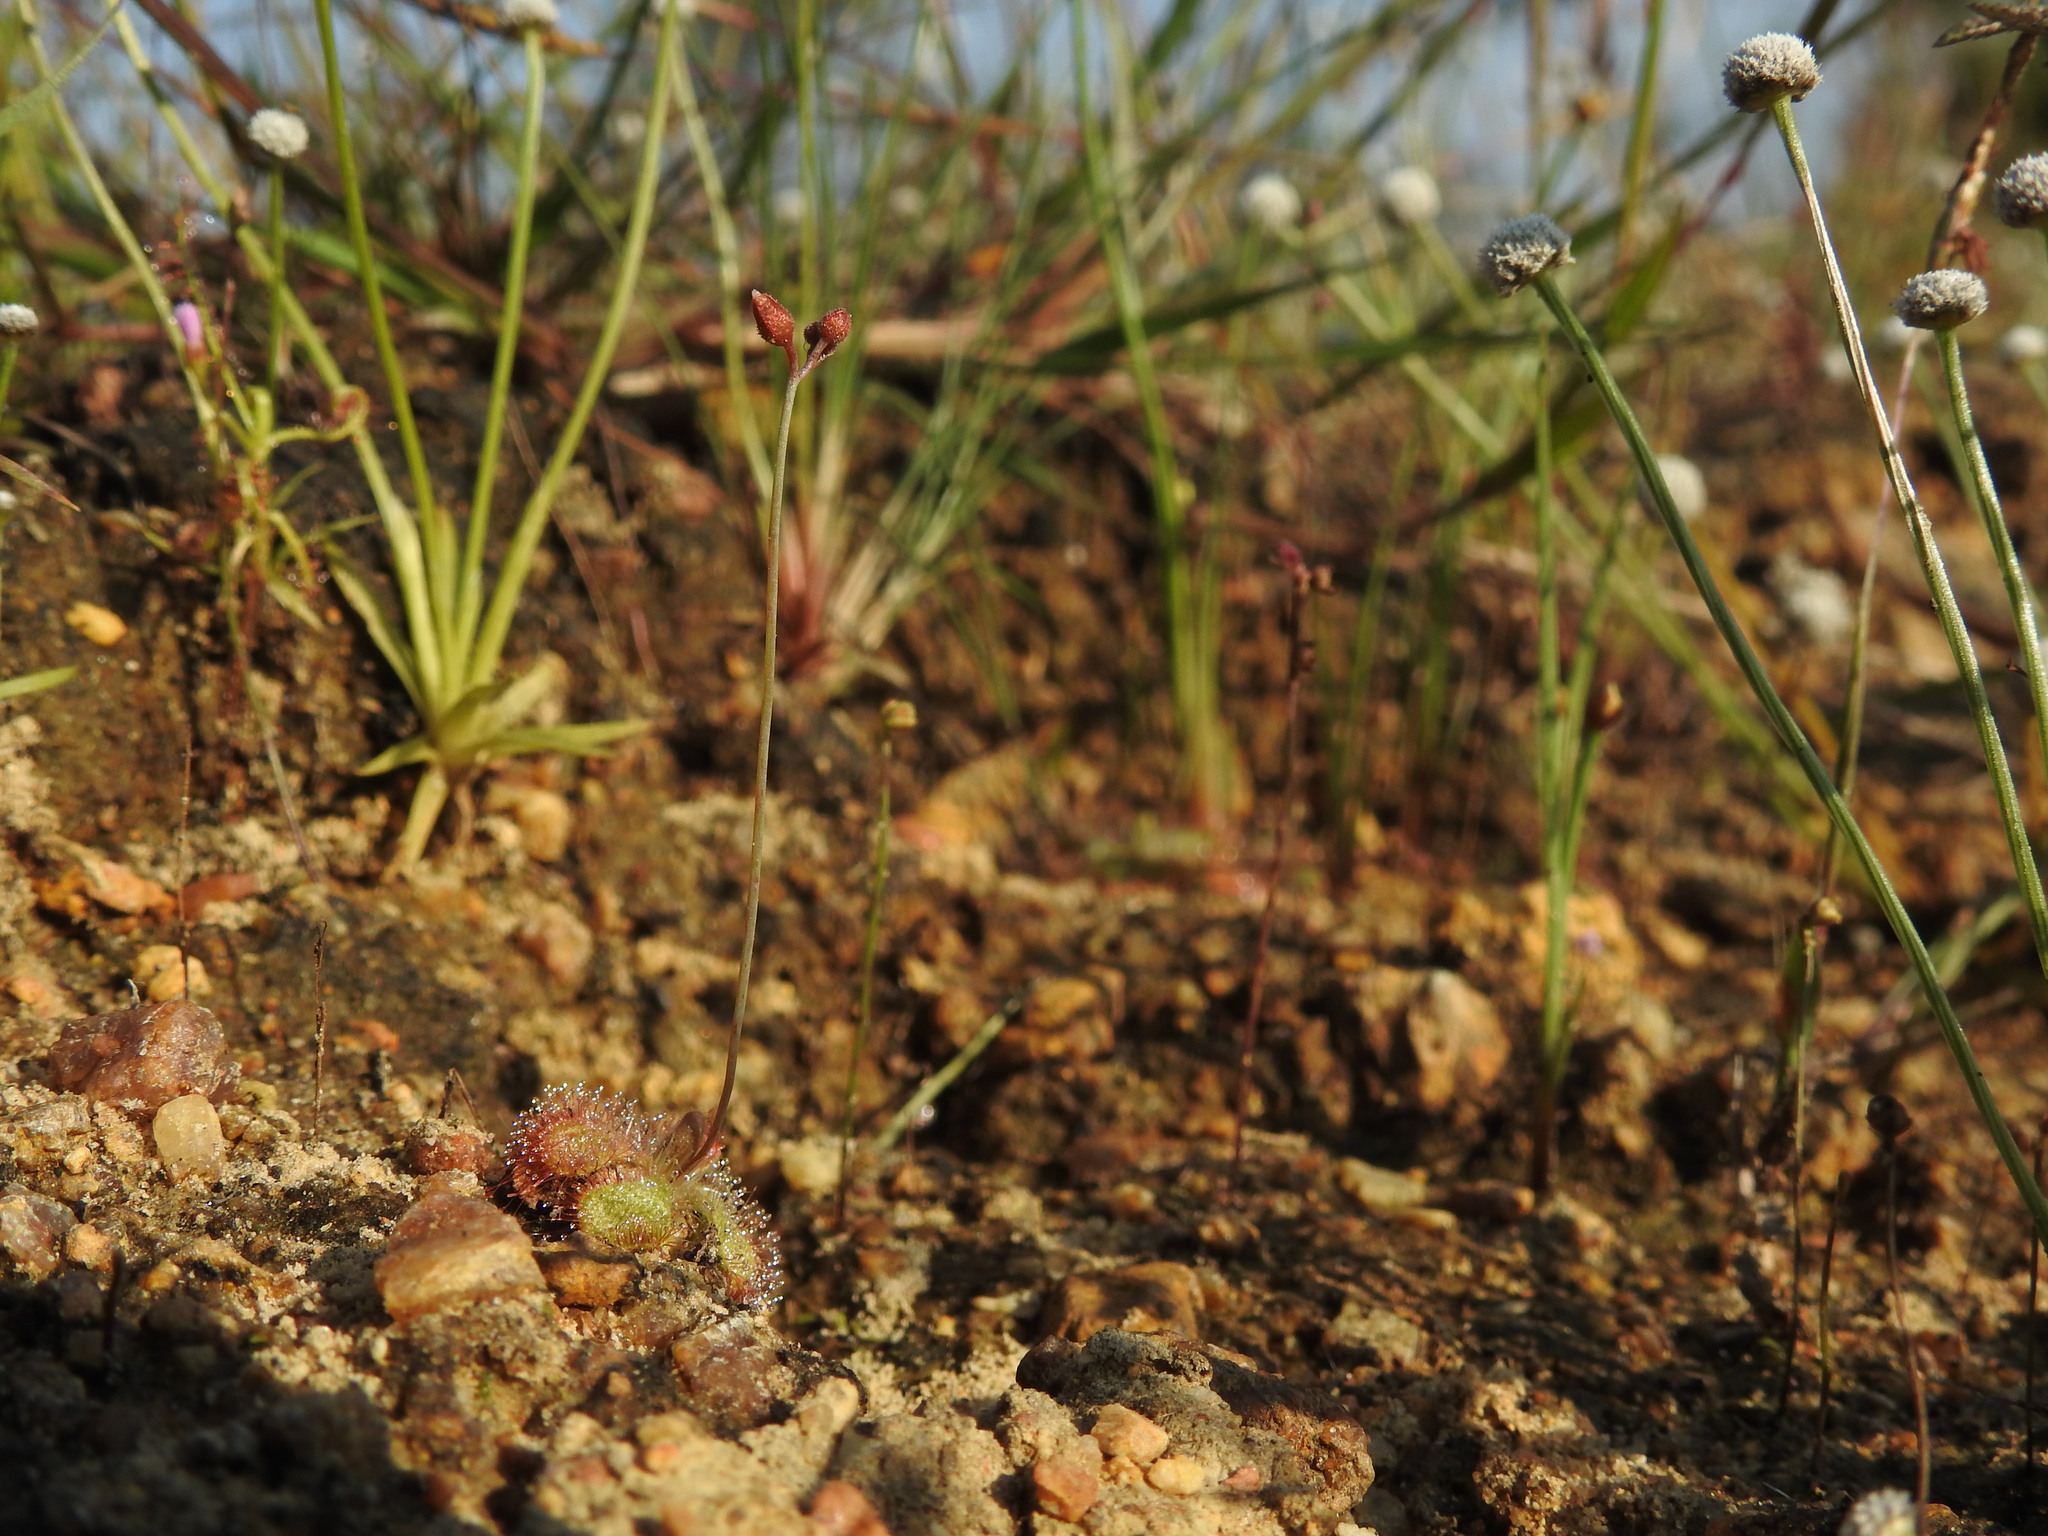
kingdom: Plantae
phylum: Tracheophyta
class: Magnoliopsida
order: Caryophyllales
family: Droseraceae
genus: Drosera
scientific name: Drosera spatulata
